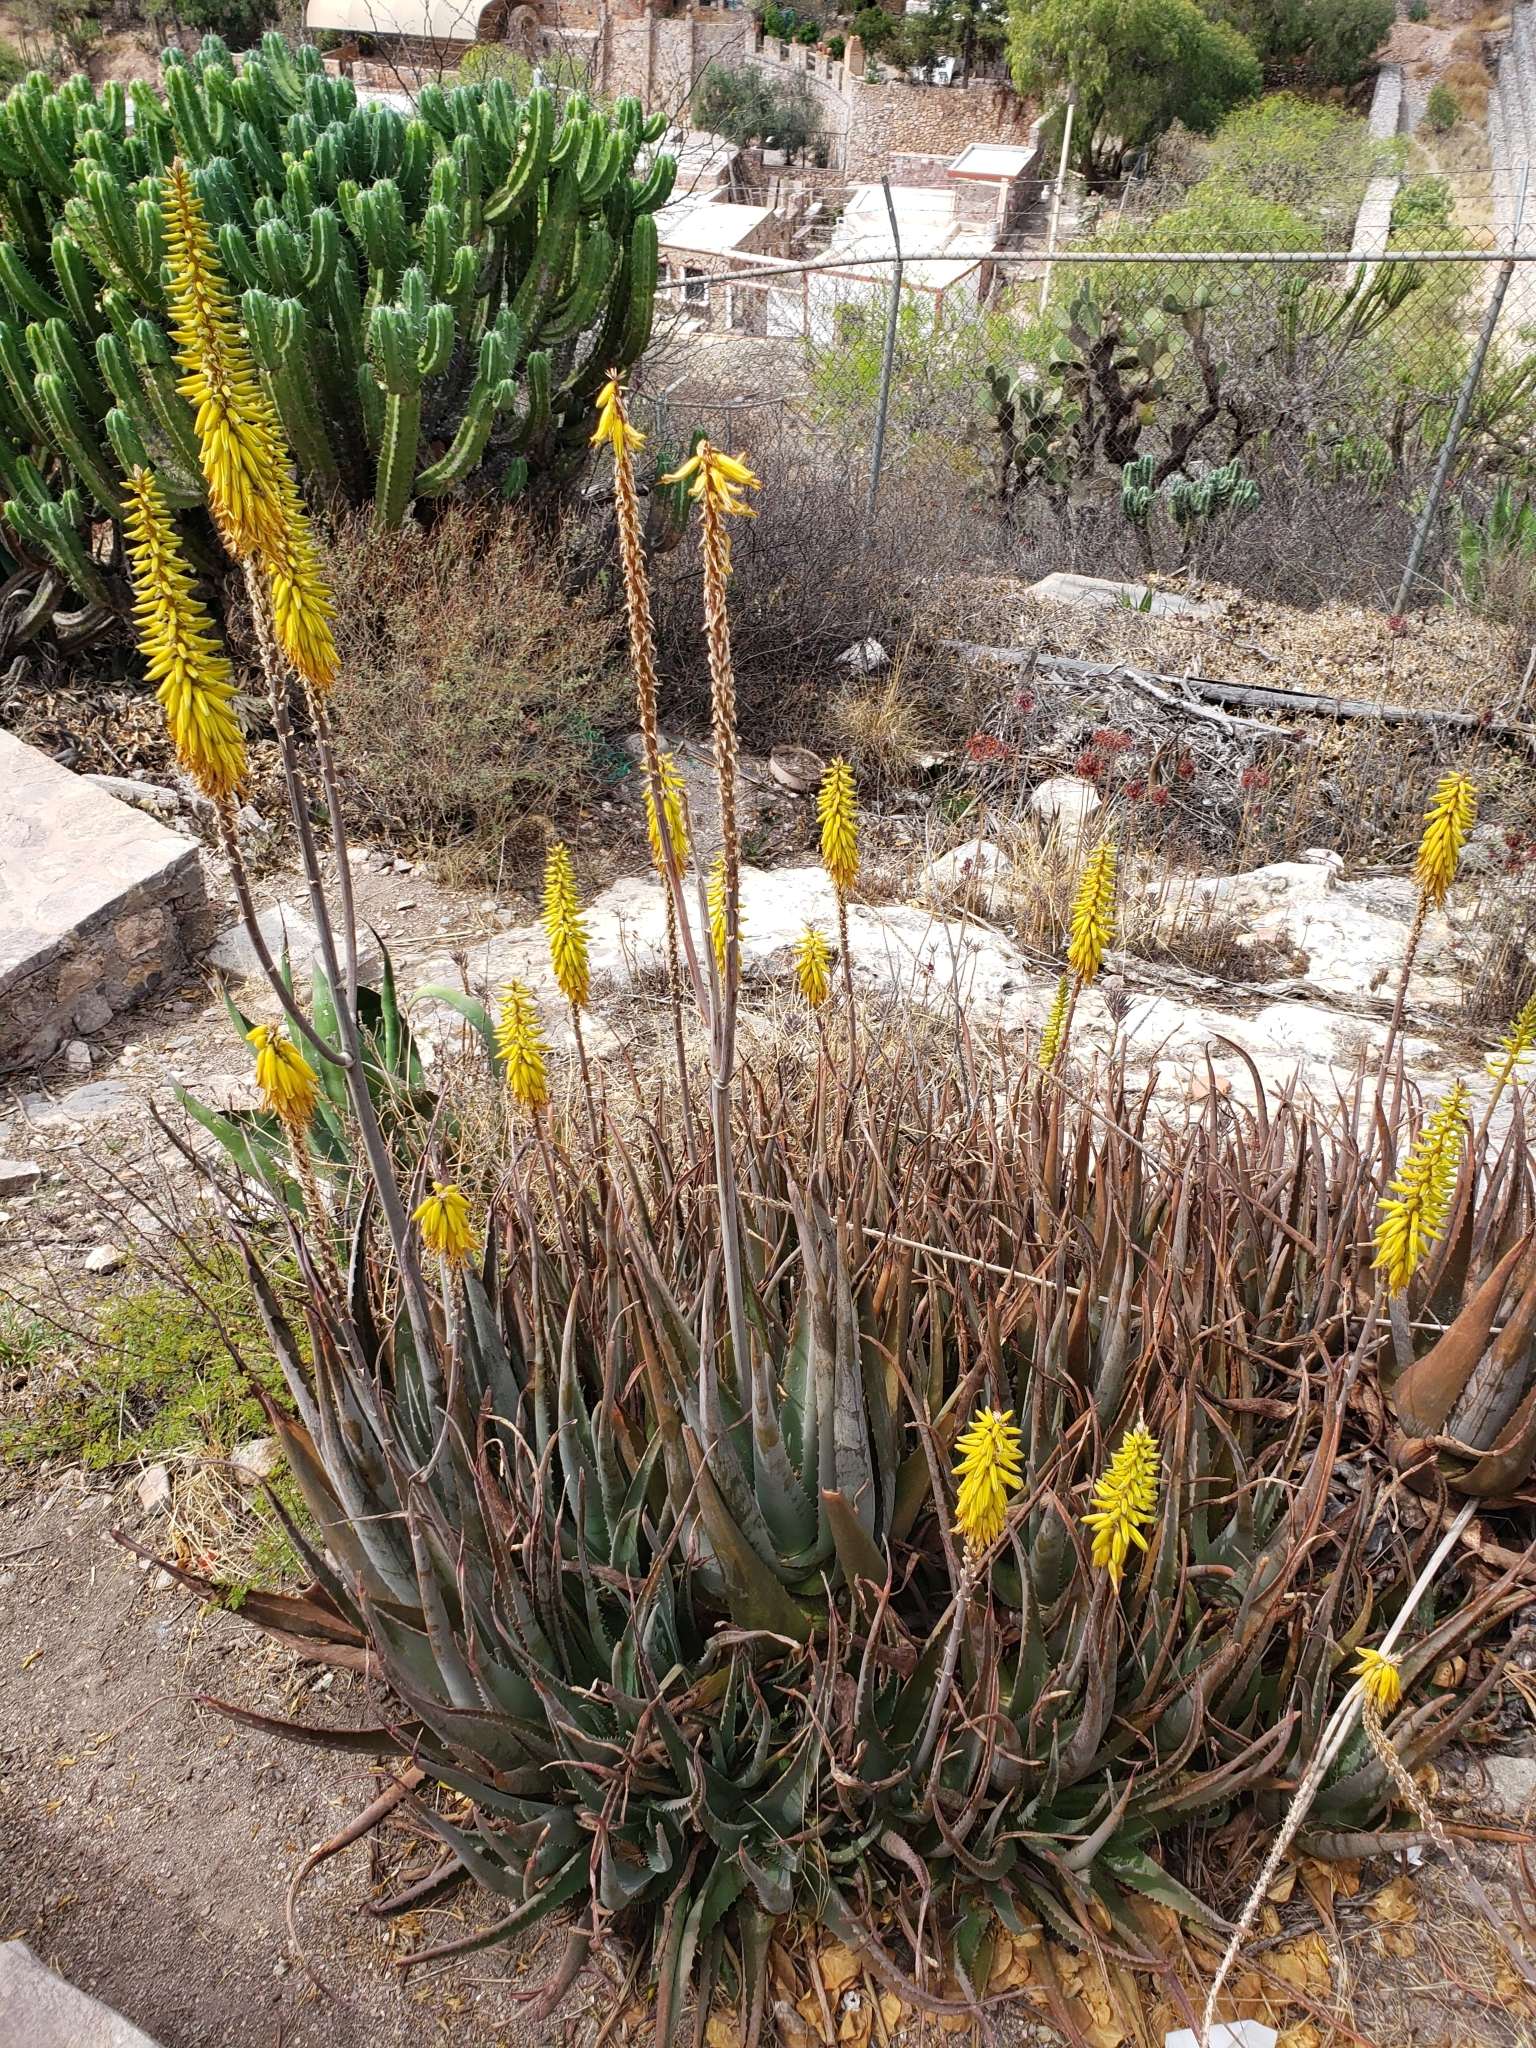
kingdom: Plantae
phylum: Tracheophyta
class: Liliopsida
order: Asparagales
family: Asphodelaceae
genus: Aloe
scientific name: Aloe vera
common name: Barbados aloe
